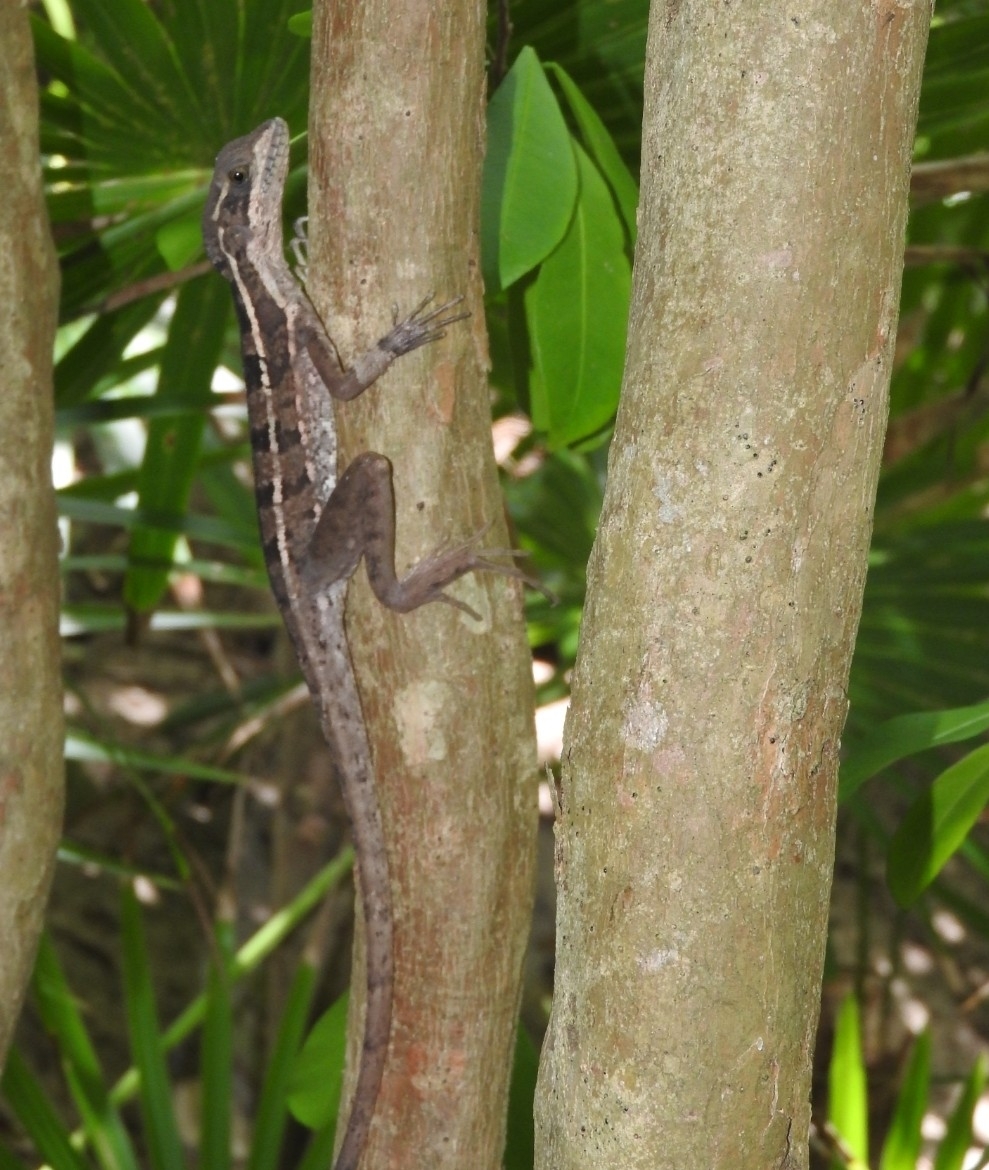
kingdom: Animalia
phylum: Chordata
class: Squamata
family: Corytophanidae
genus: Basiliscus
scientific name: Basiliscus vittatus
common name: Brown basilisk
